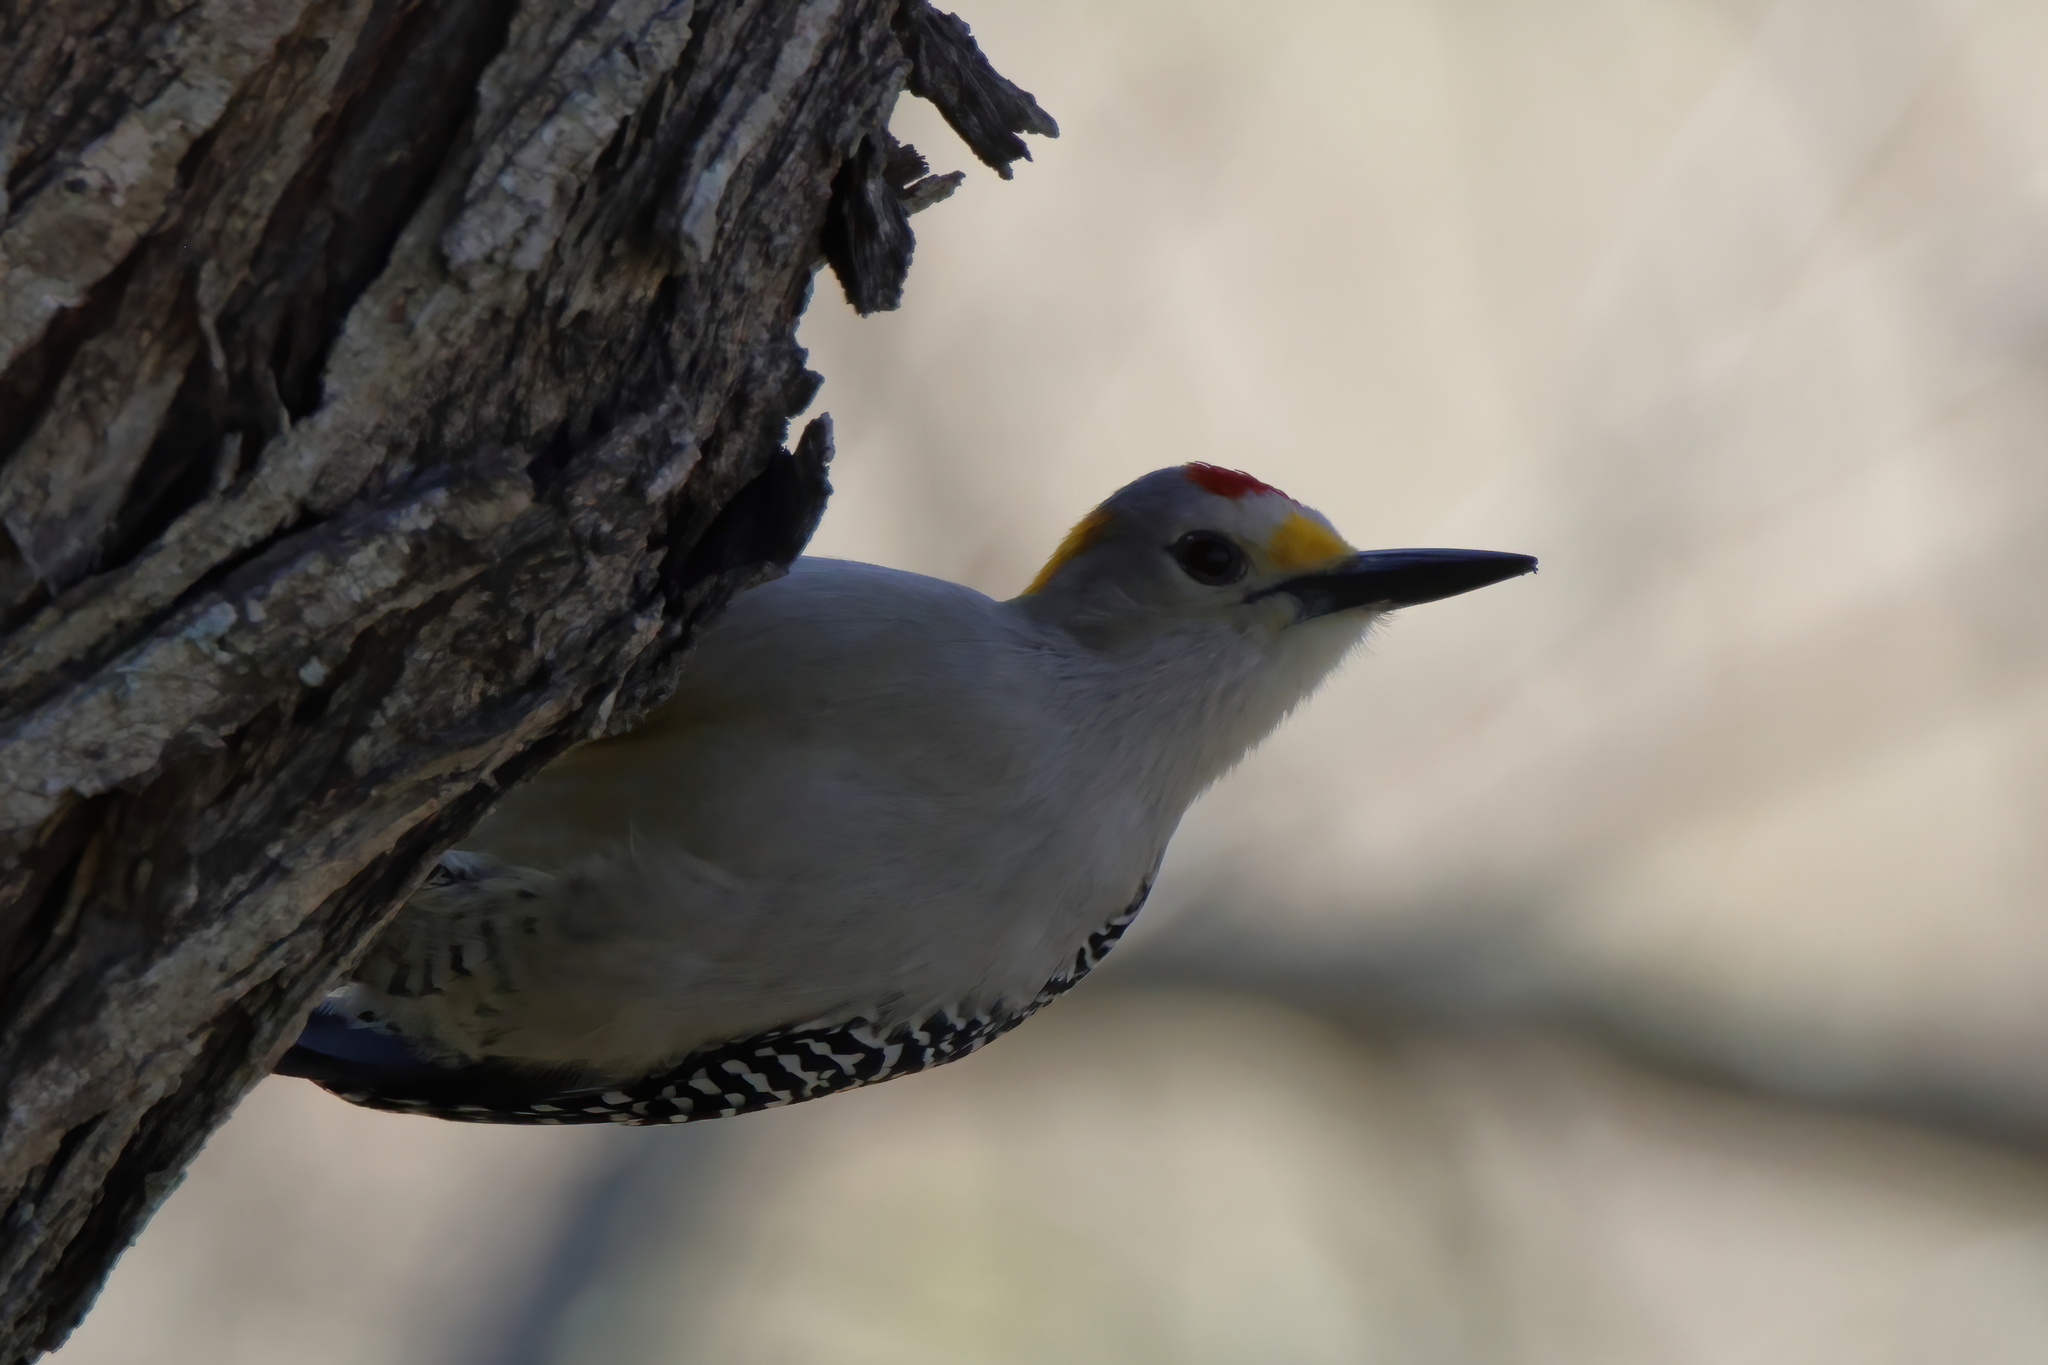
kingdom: Animalia
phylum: Chordata
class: Aves
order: Piciformes
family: Picidae
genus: Melanerpes
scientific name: Melanerpes aurifrons
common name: Golden-fronted woodpecker
